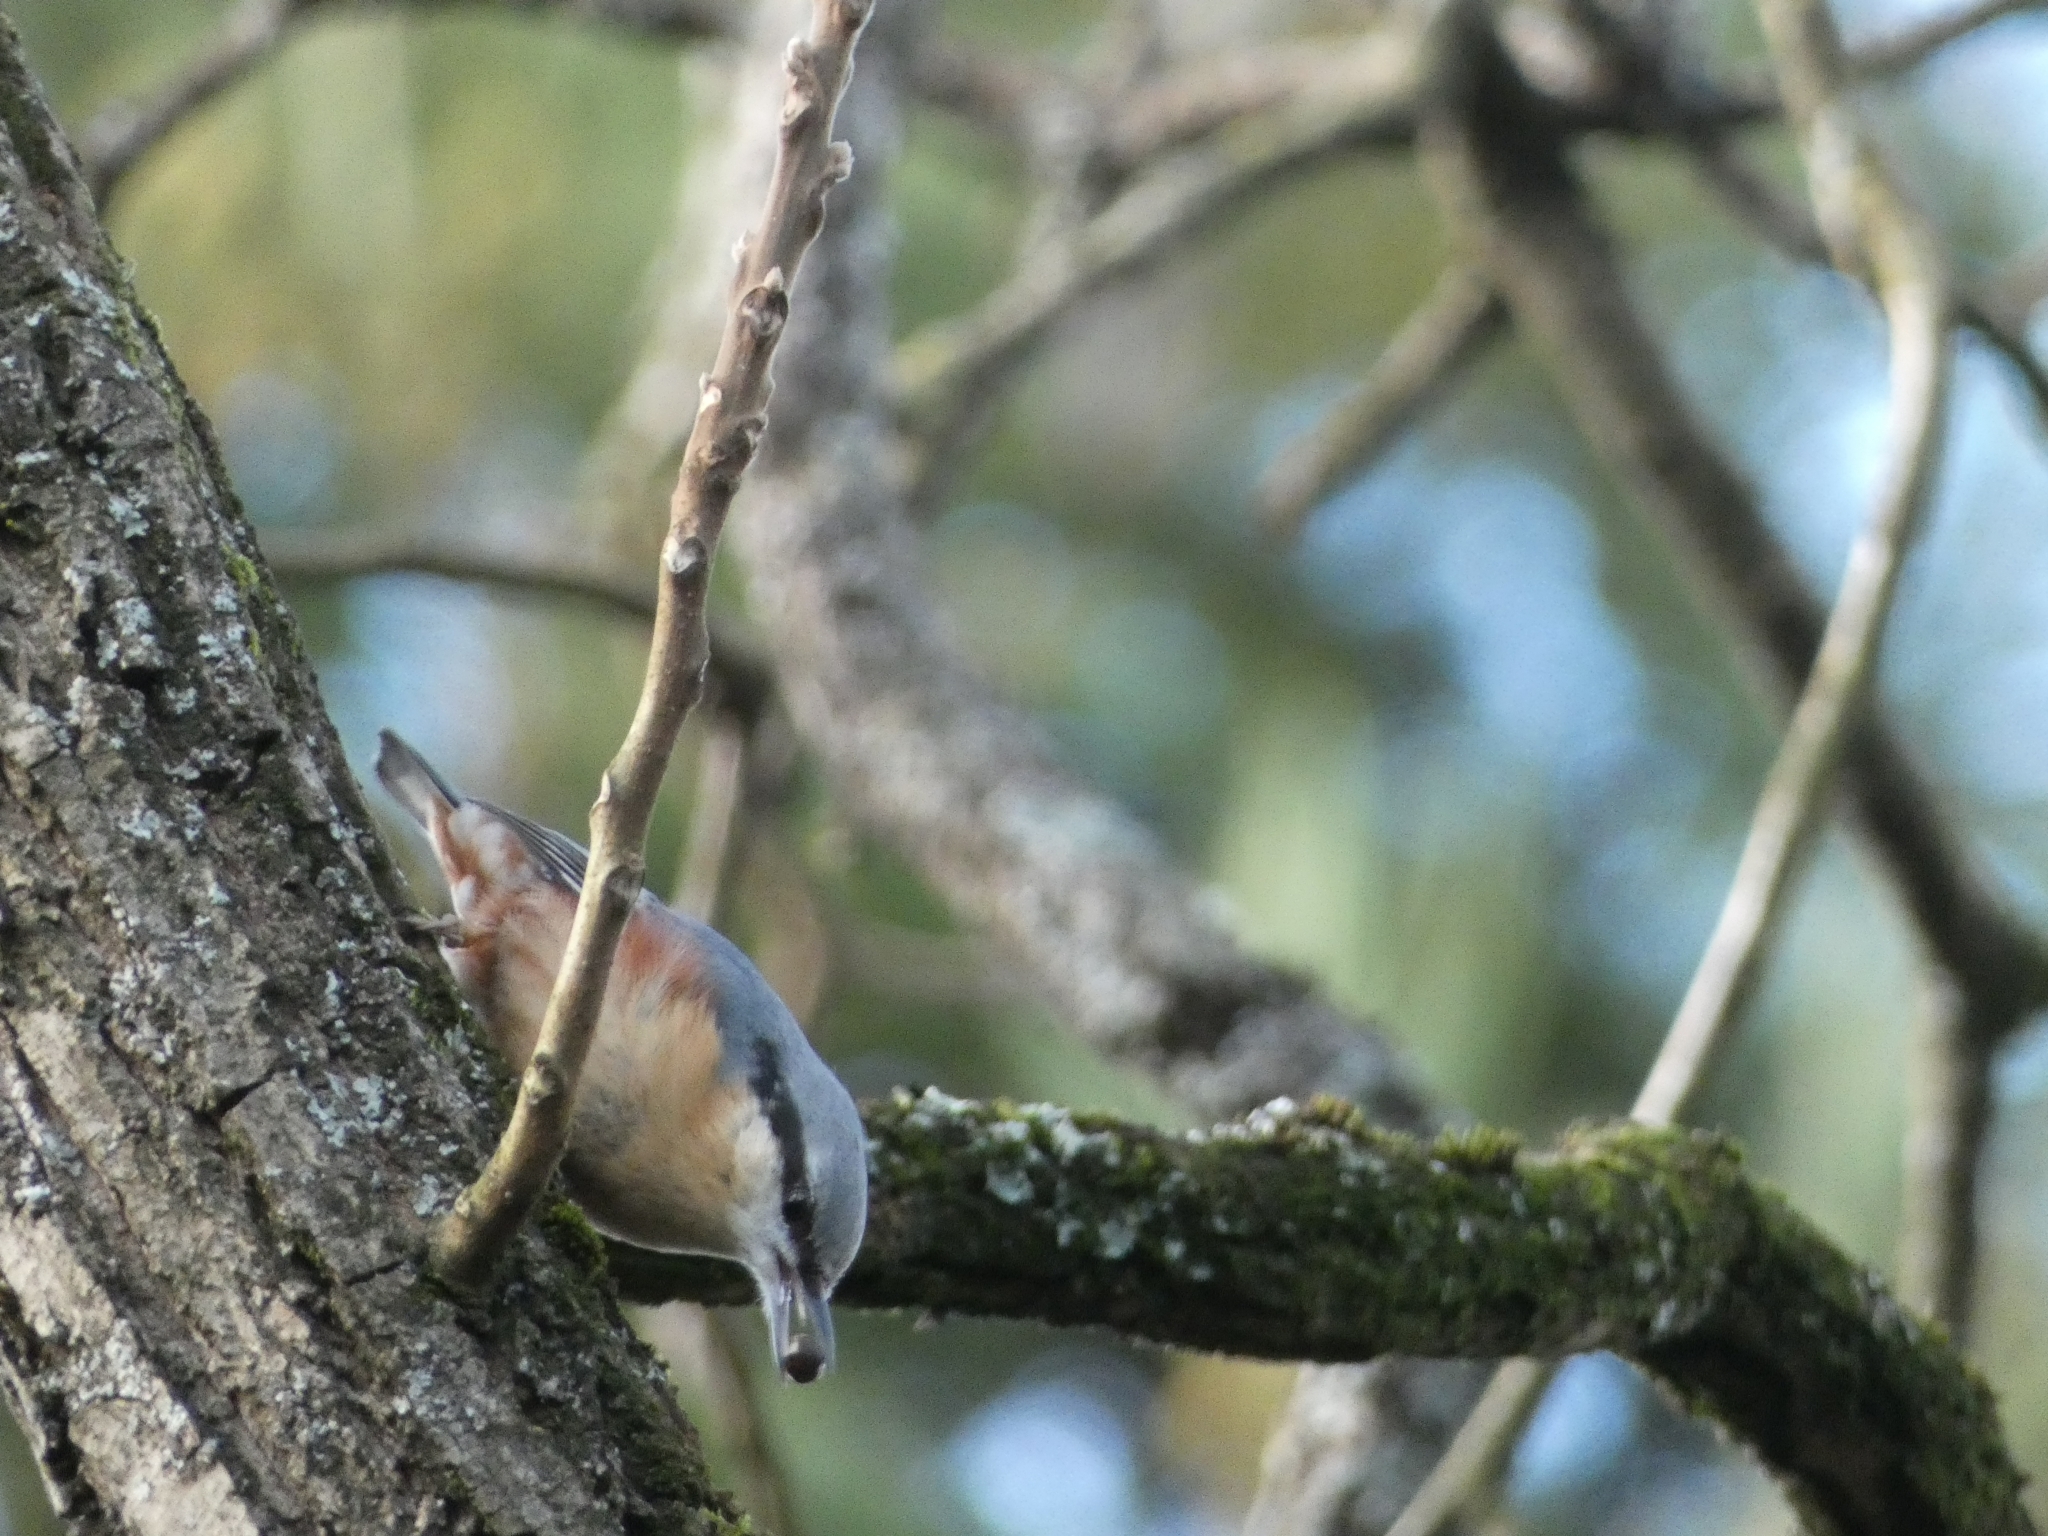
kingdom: Animalia
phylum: Chordata
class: Aves
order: Passeriformes
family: Sittidae
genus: Sitta
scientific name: Sitta europaea
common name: Eurasian nuthatch
